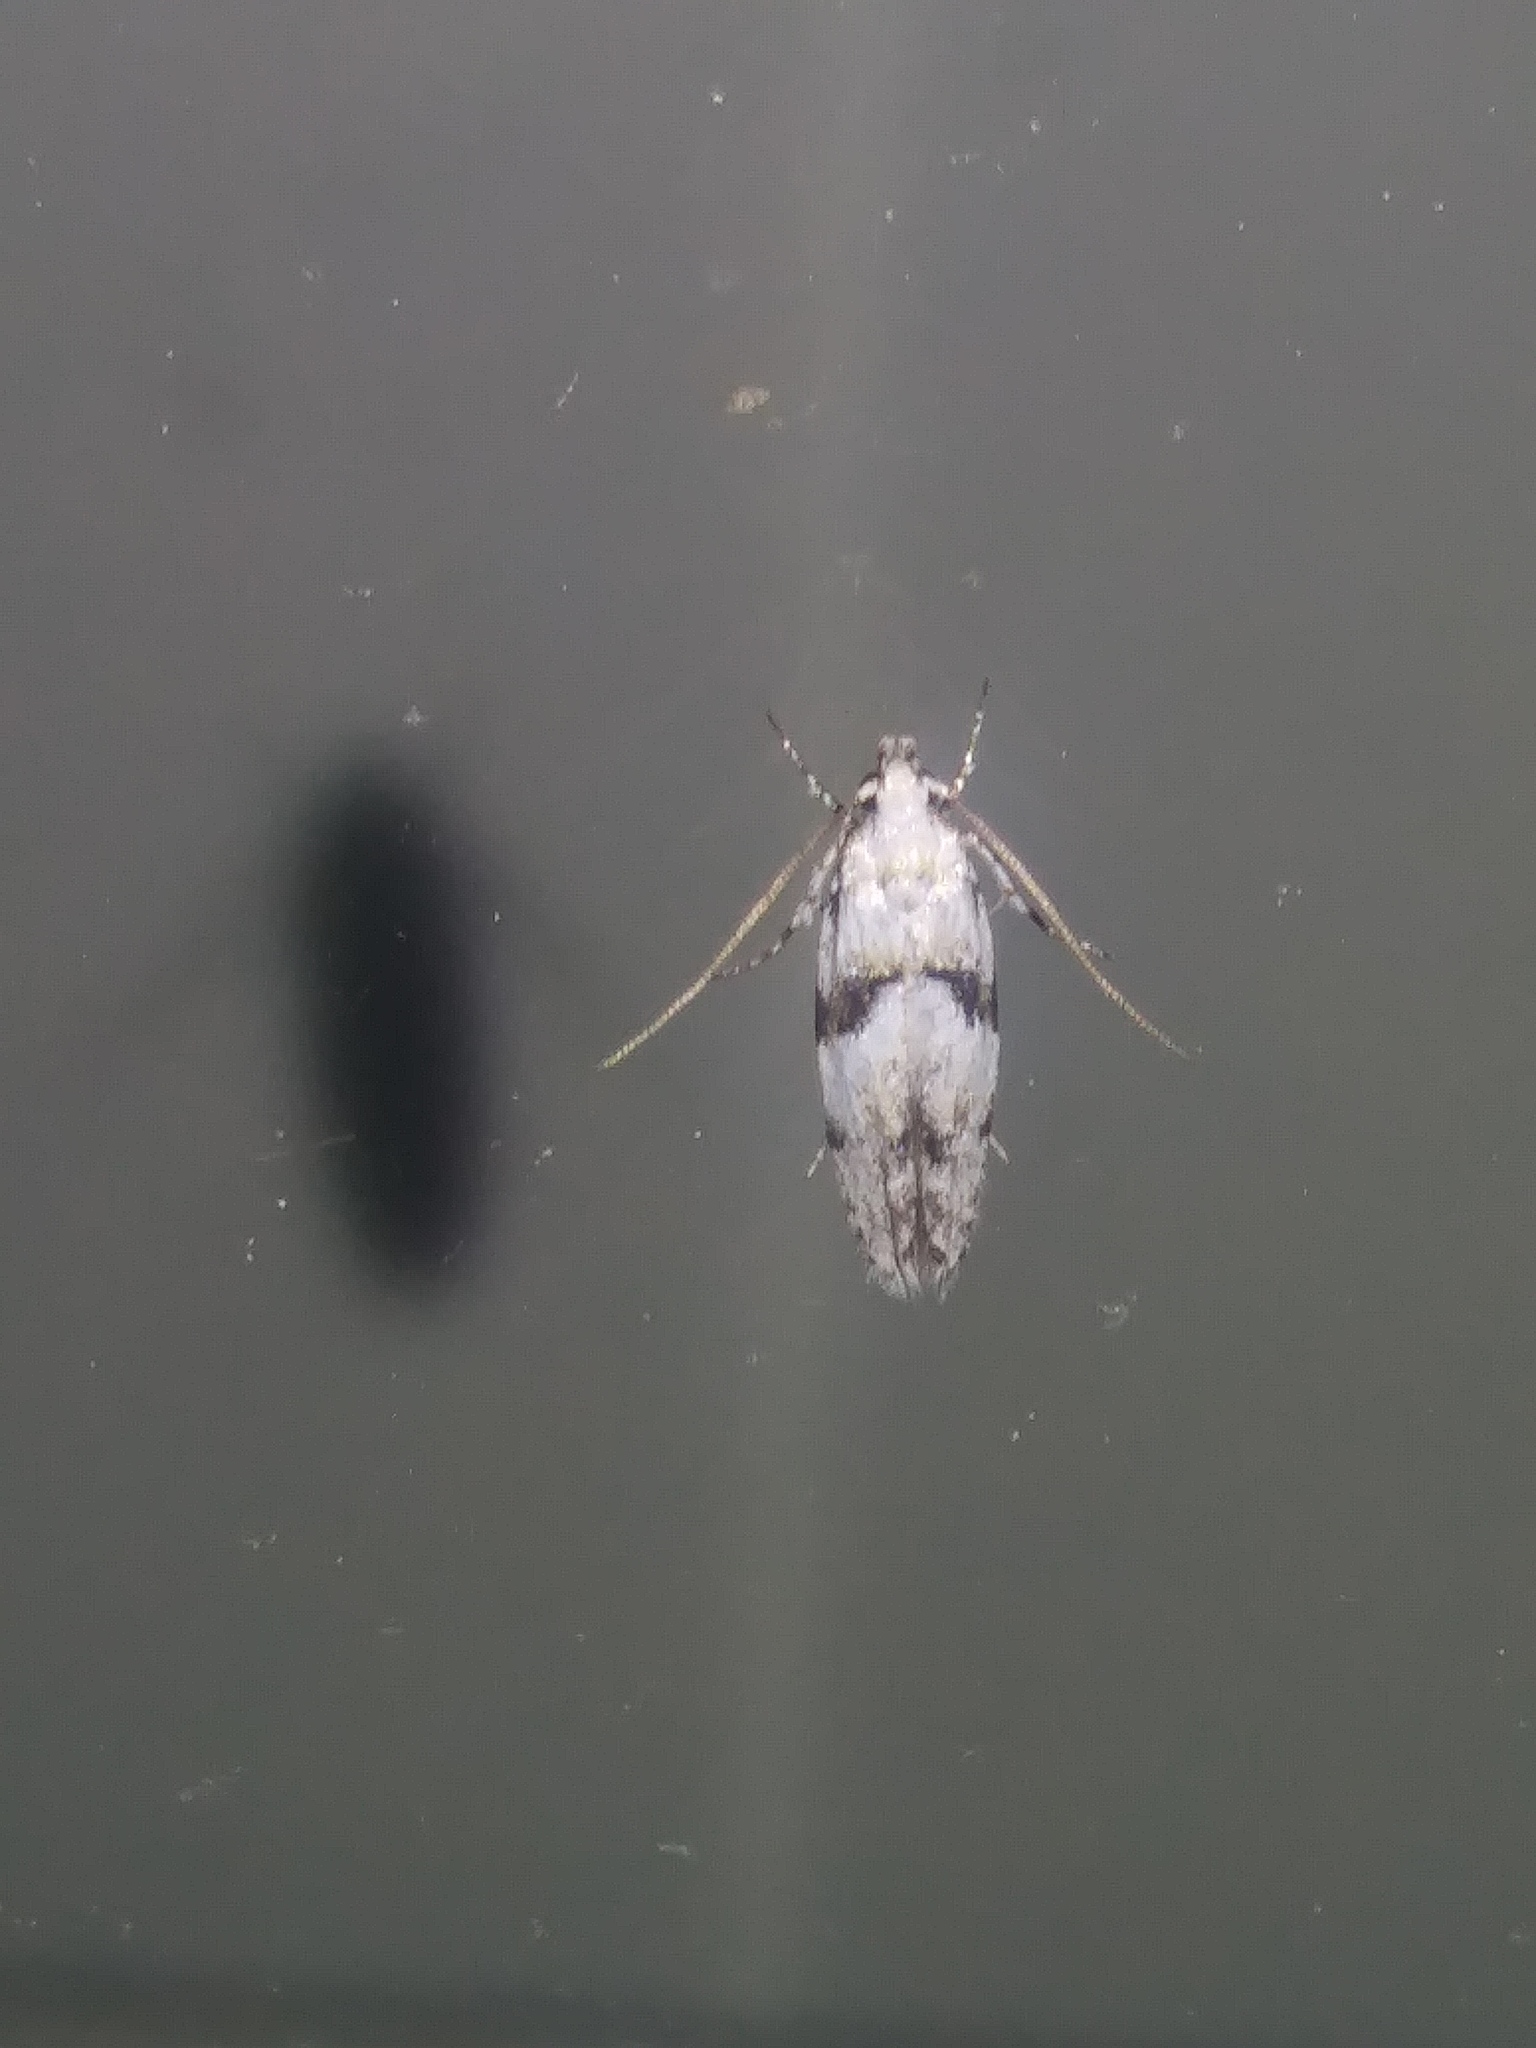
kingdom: Animalia
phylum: Arthropoda
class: Insecta
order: Lepidoptera
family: Gelechiidae
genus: Arogalea
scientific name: Arogalea cristifasciella
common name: White stripe-backed moth
